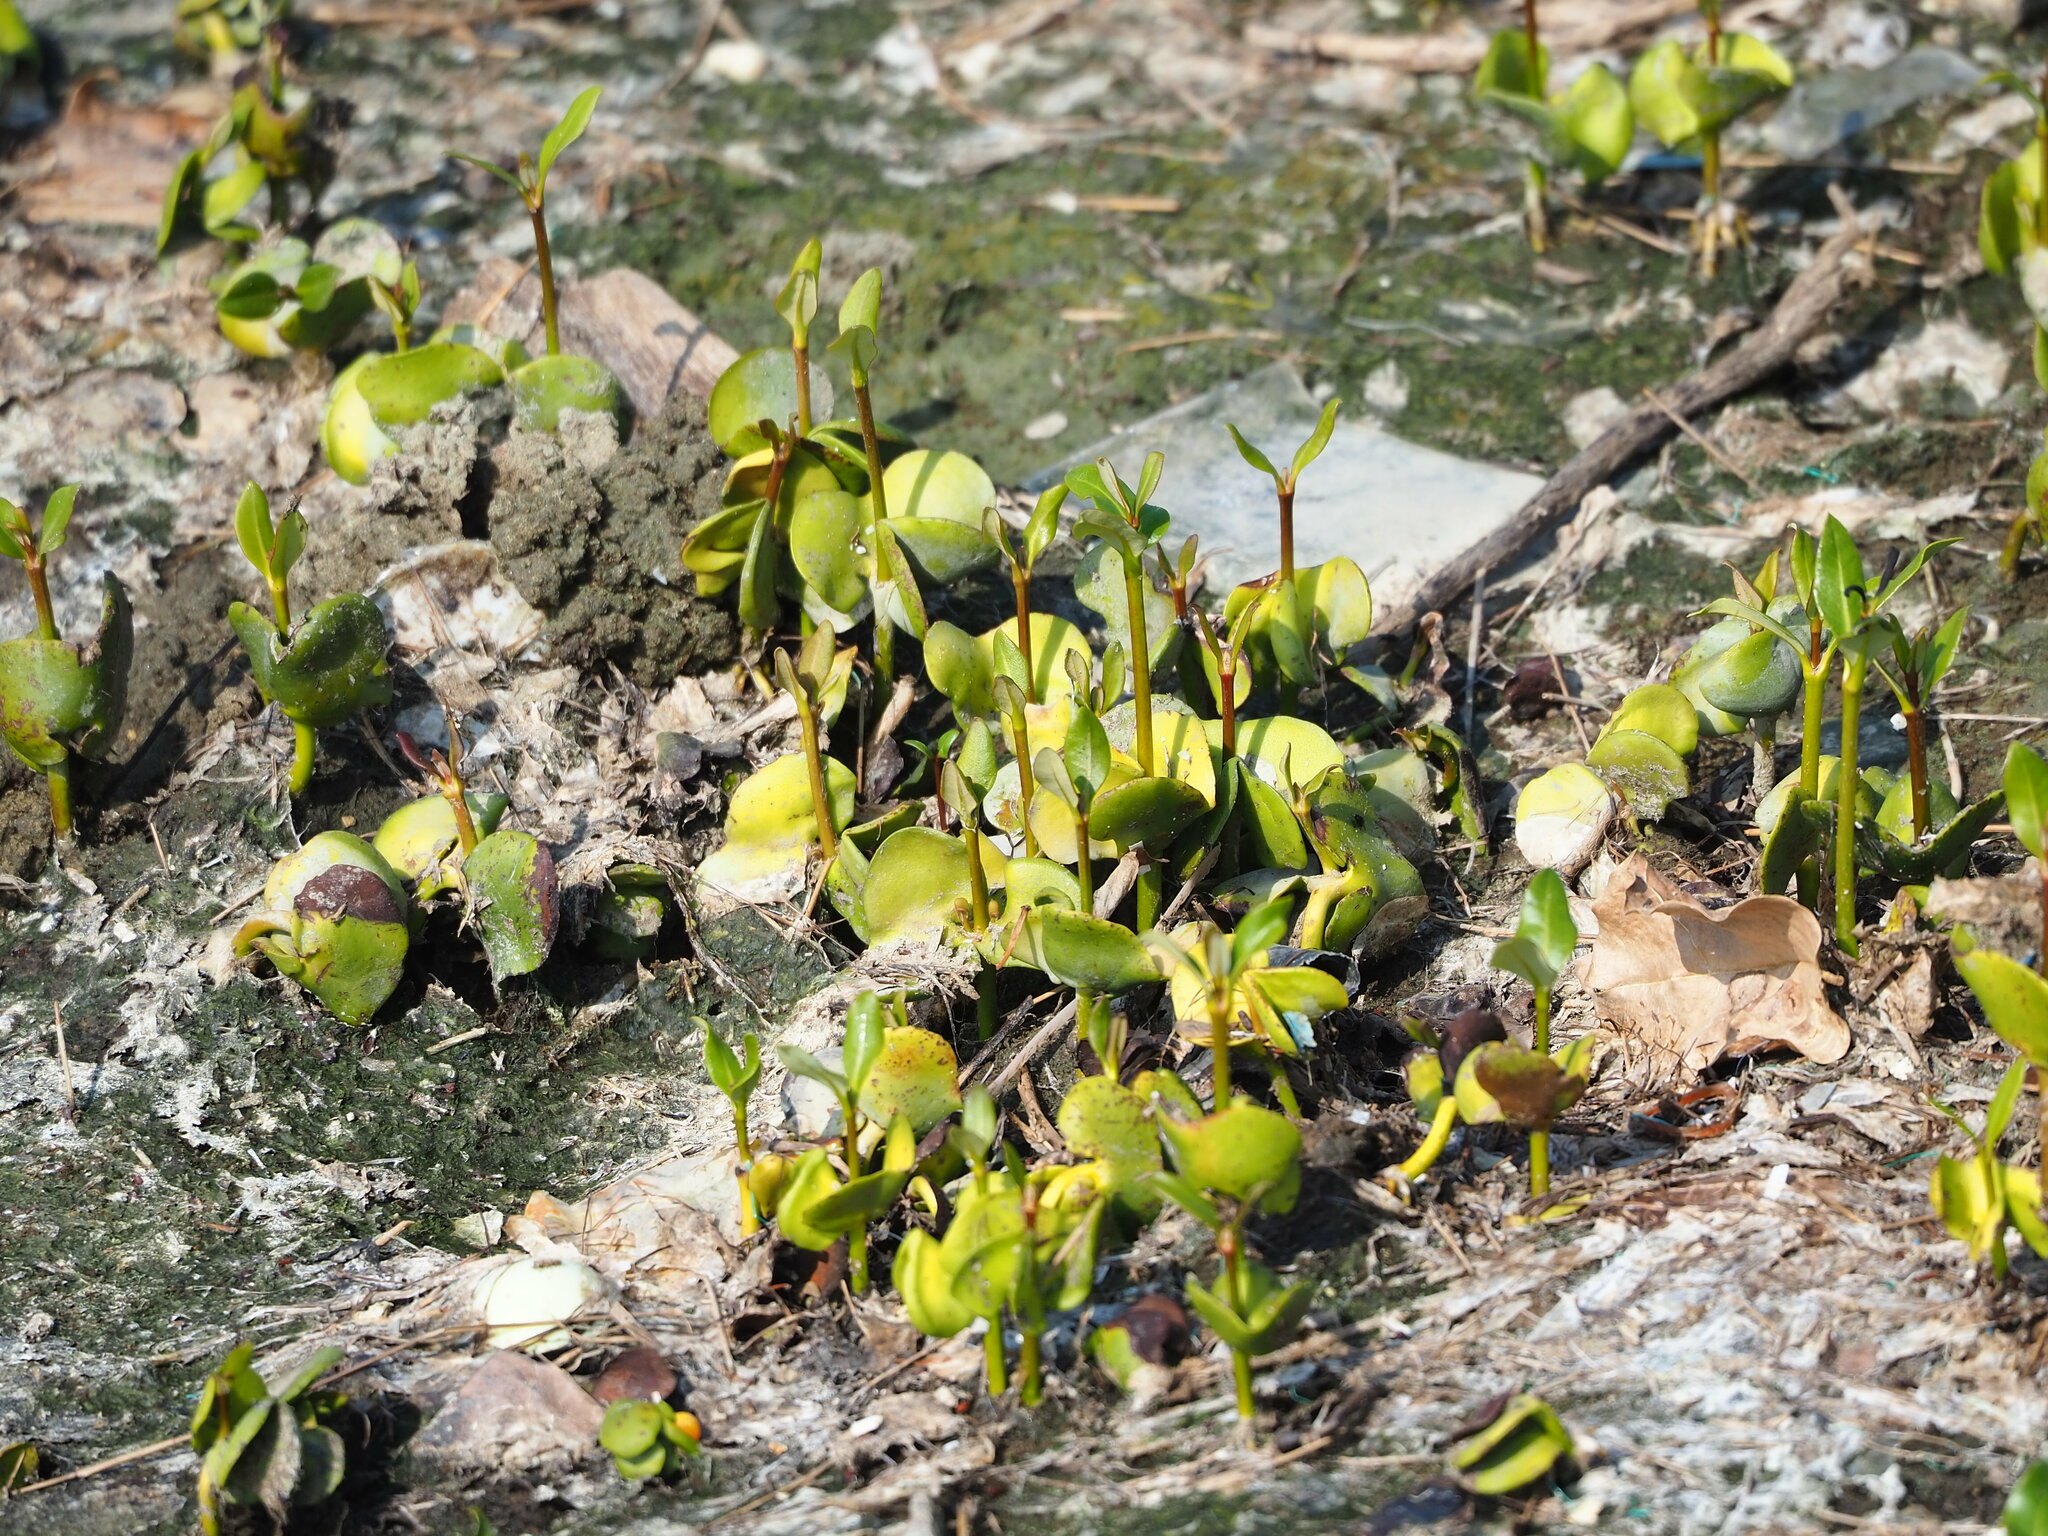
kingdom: Plantae
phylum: Tracheophyta
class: Magnoliopsida
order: Lamiales
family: Acanthaceae
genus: Avicennia
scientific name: Avicennia marina
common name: Gray mangrove
